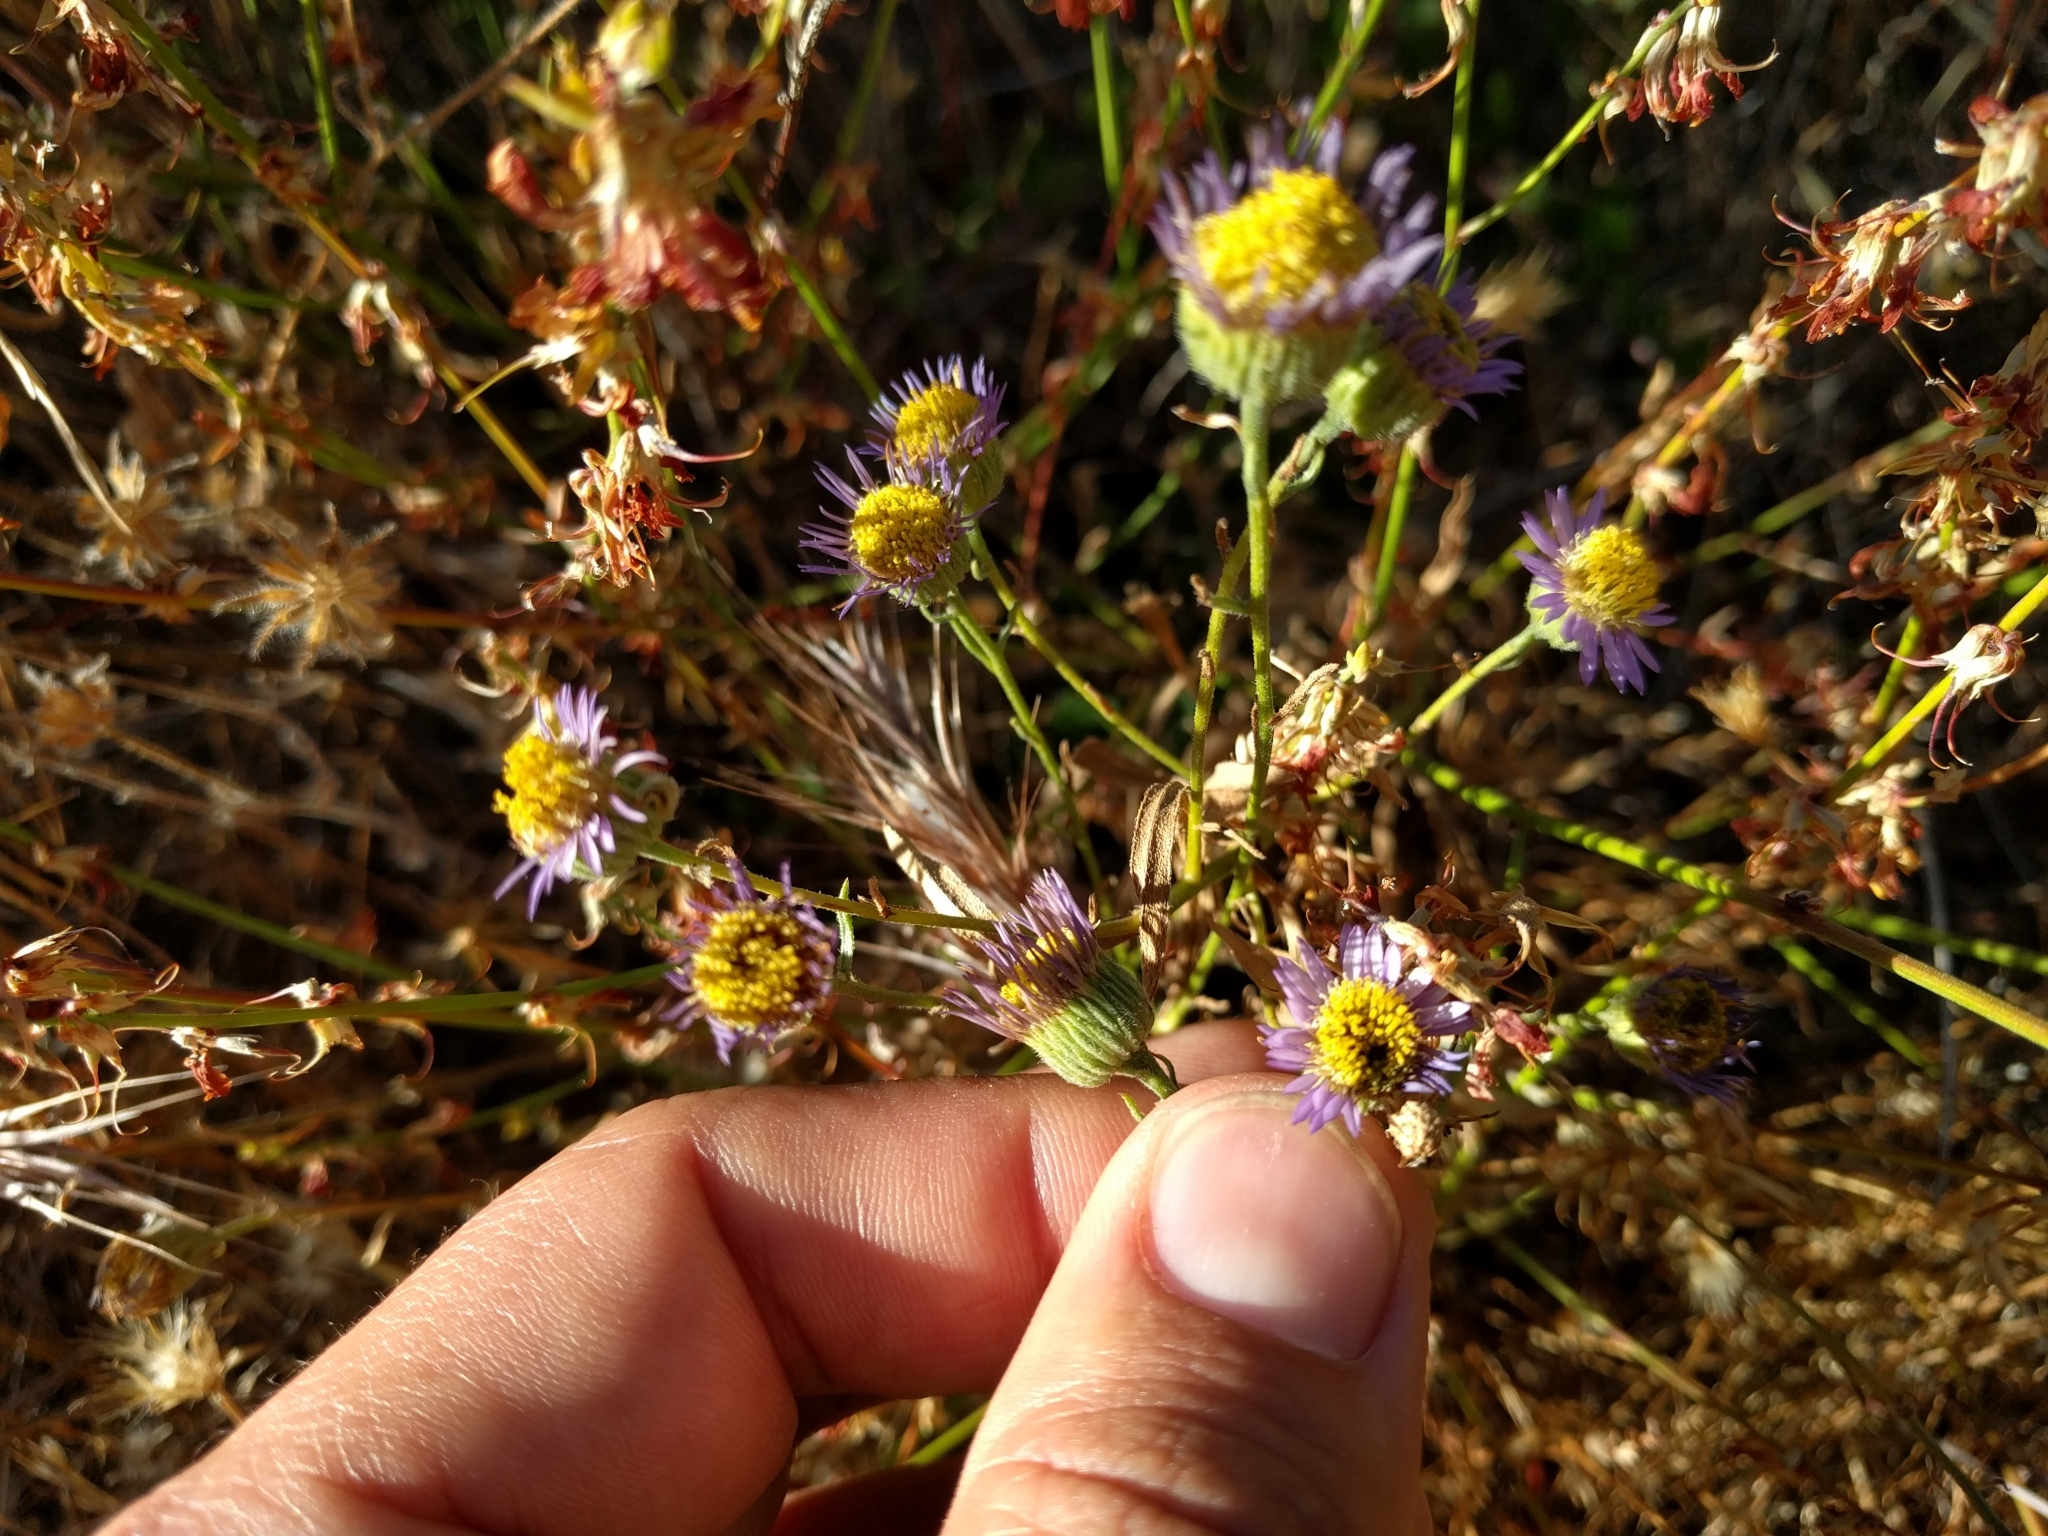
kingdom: Plantae
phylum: Tracheophyta
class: Magnoliopsida
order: Asterales
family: Asteraceae
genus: Erigeron
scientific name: Erigeron foliosus
